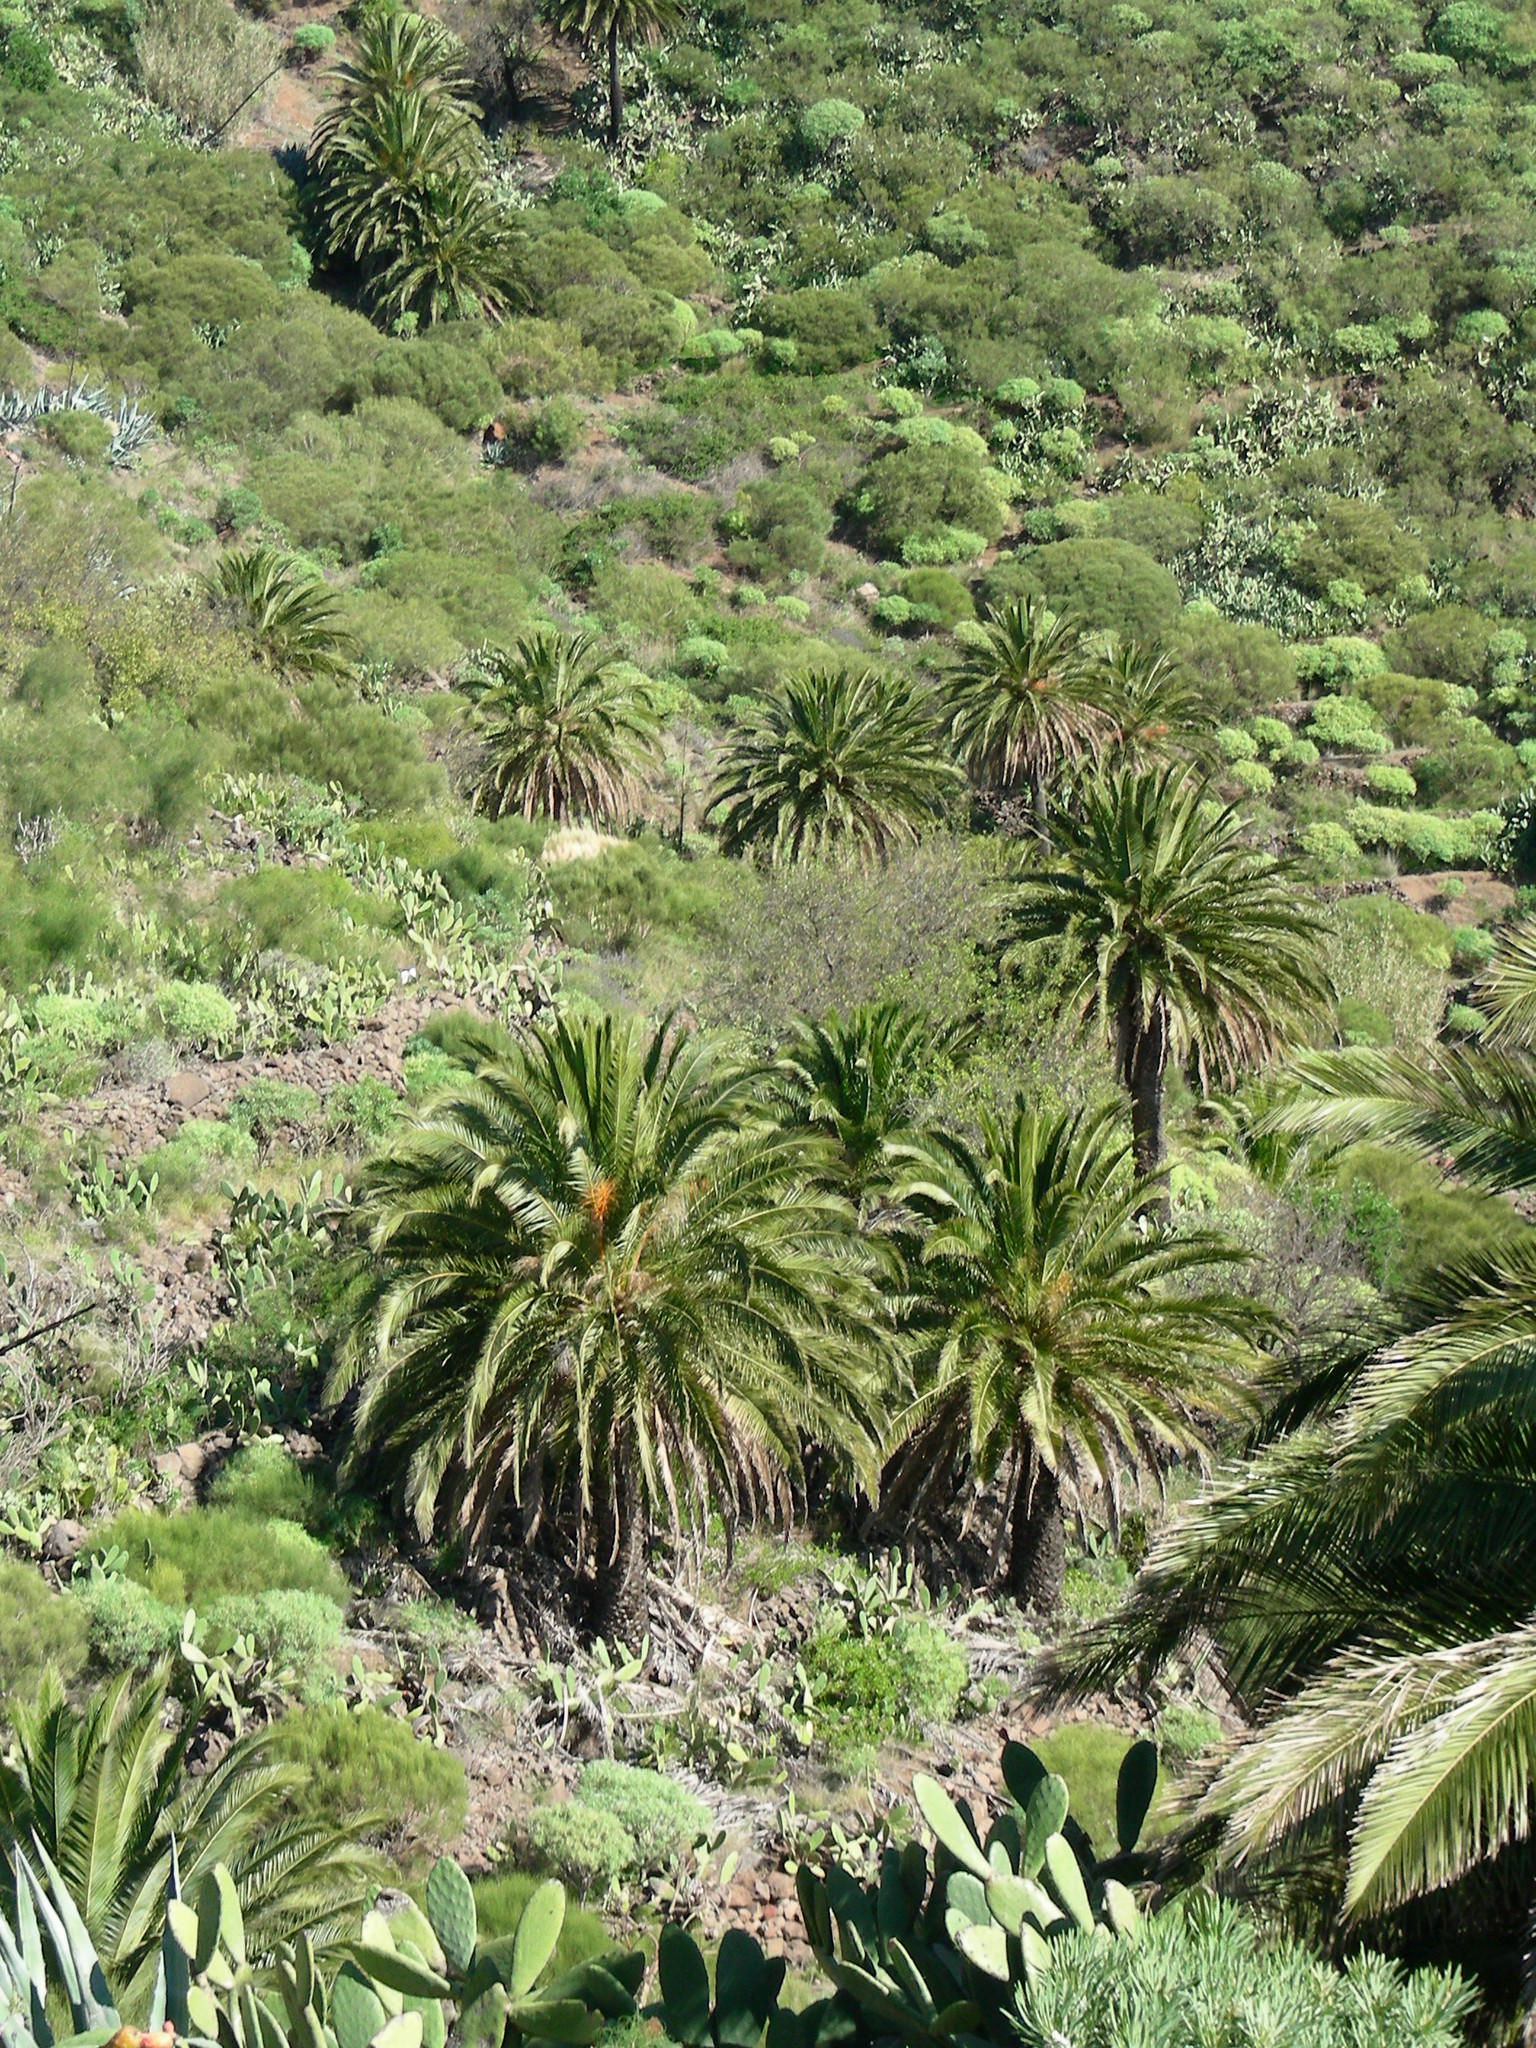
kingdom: Plantae
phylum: Tracheophyta
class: Liliopsida
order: Arecales
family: Arecaceae
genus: Phoenix
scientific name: Phoenix canariensis
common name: Canary island date palm
